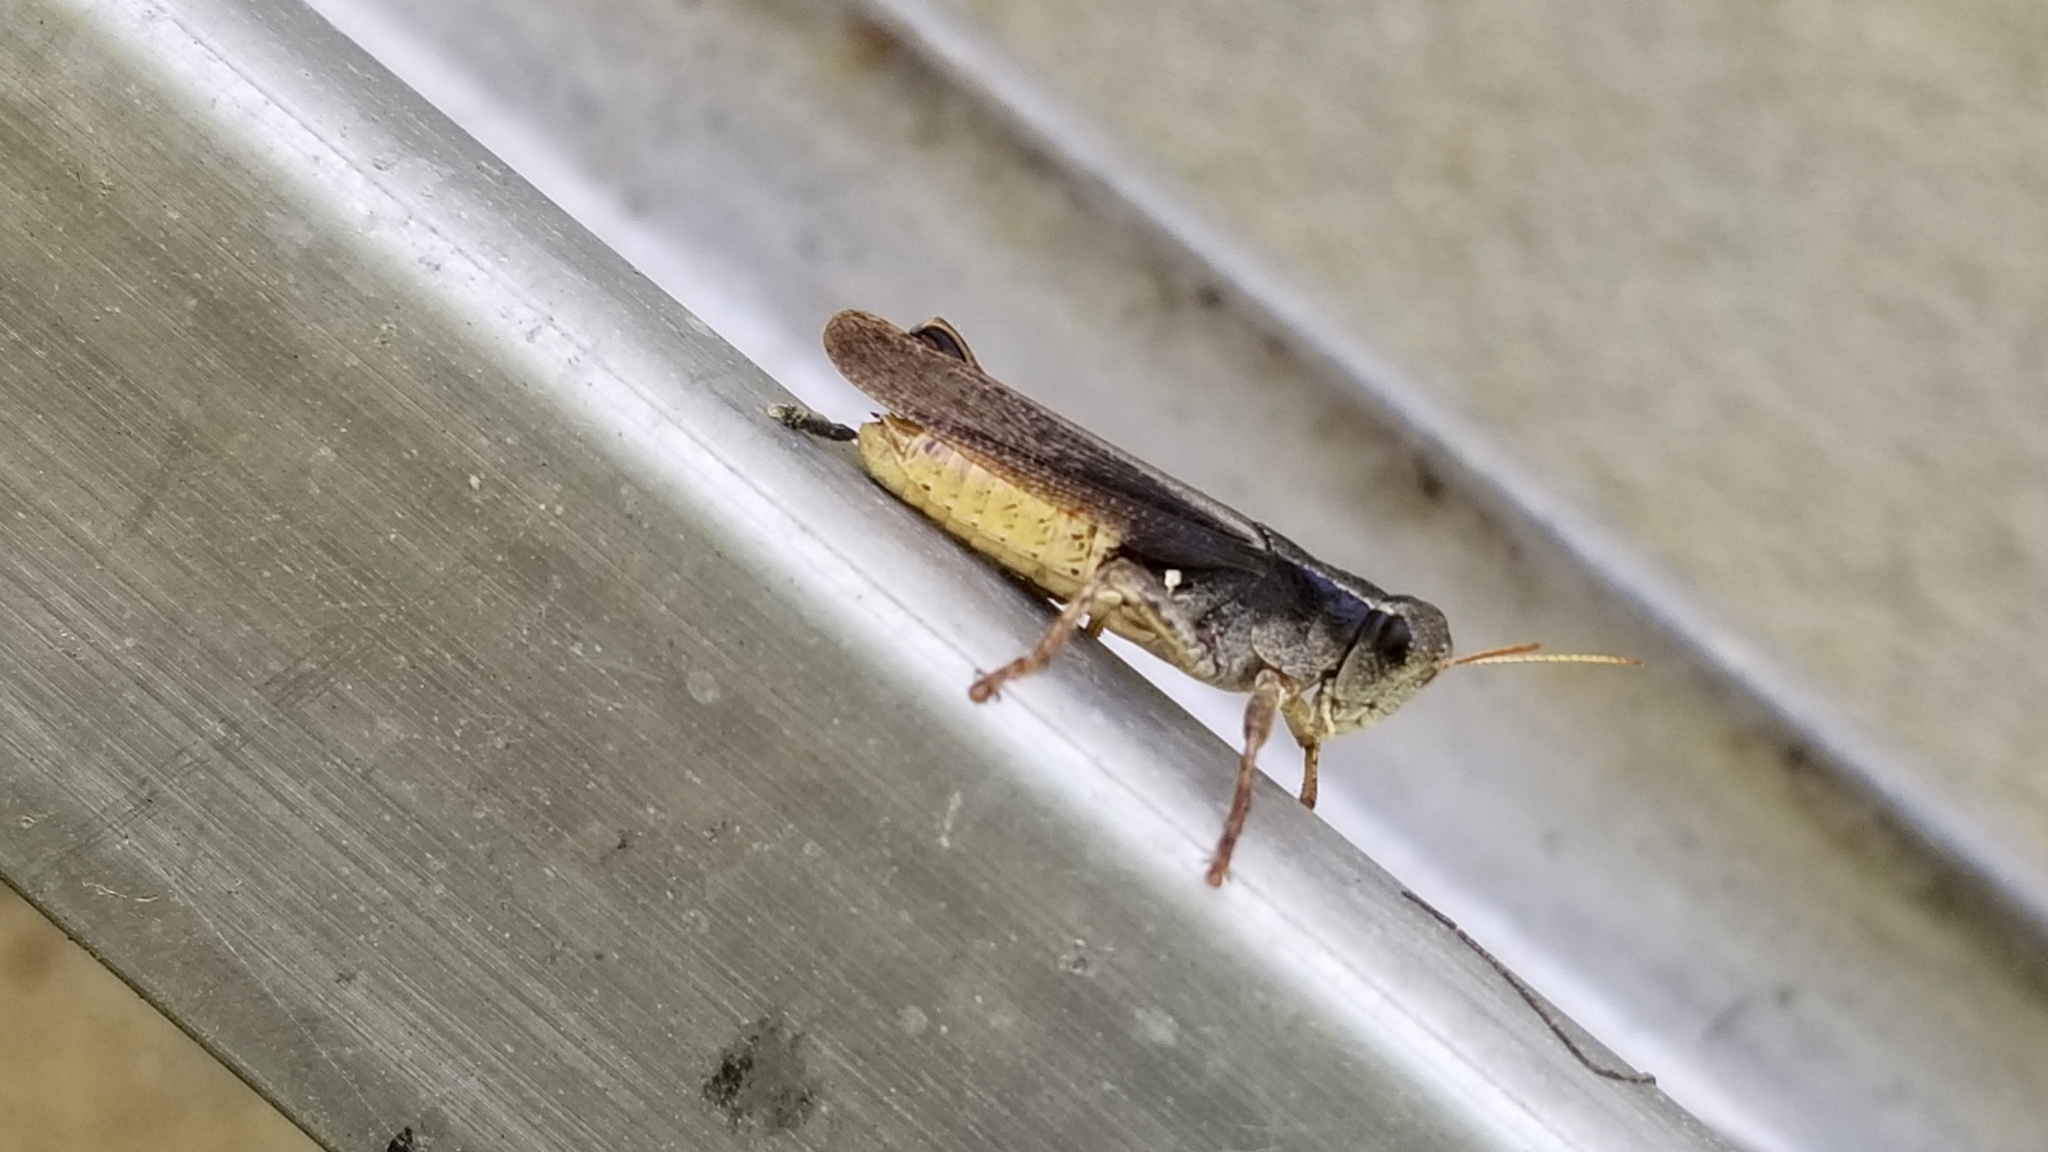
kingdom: Animalia
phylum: Arthropoda
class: Insecta
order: Orthoptera
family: Acrididae
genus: Aidemona
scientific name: Aidemona azteca
